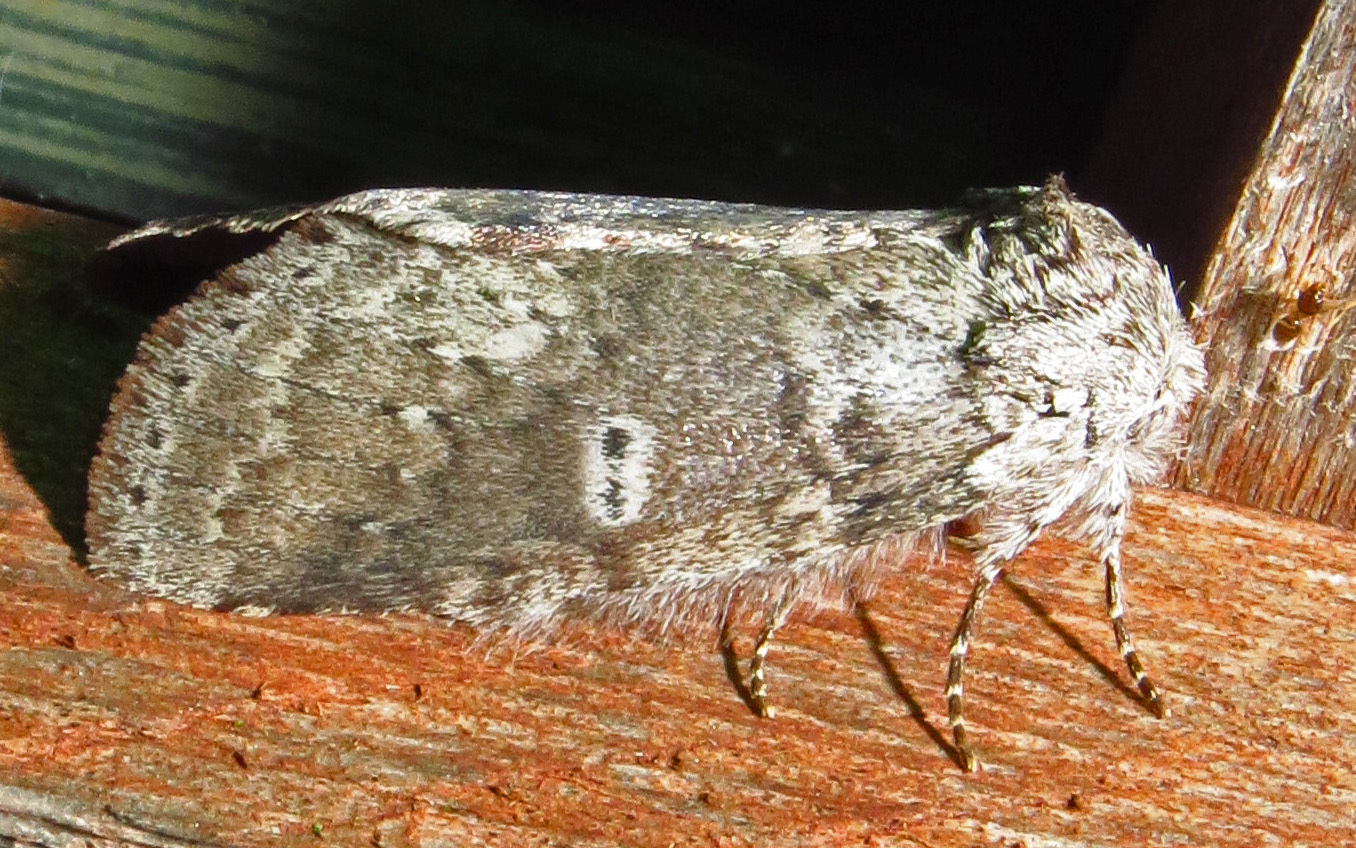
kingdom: Animalia
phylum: Arthropoda
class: Insecta
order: Lepidoptera
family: Notodontidae
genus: Lochmaeus
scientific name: Lochmaeus manteo
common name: Variable oakleaf caterpillar moth
